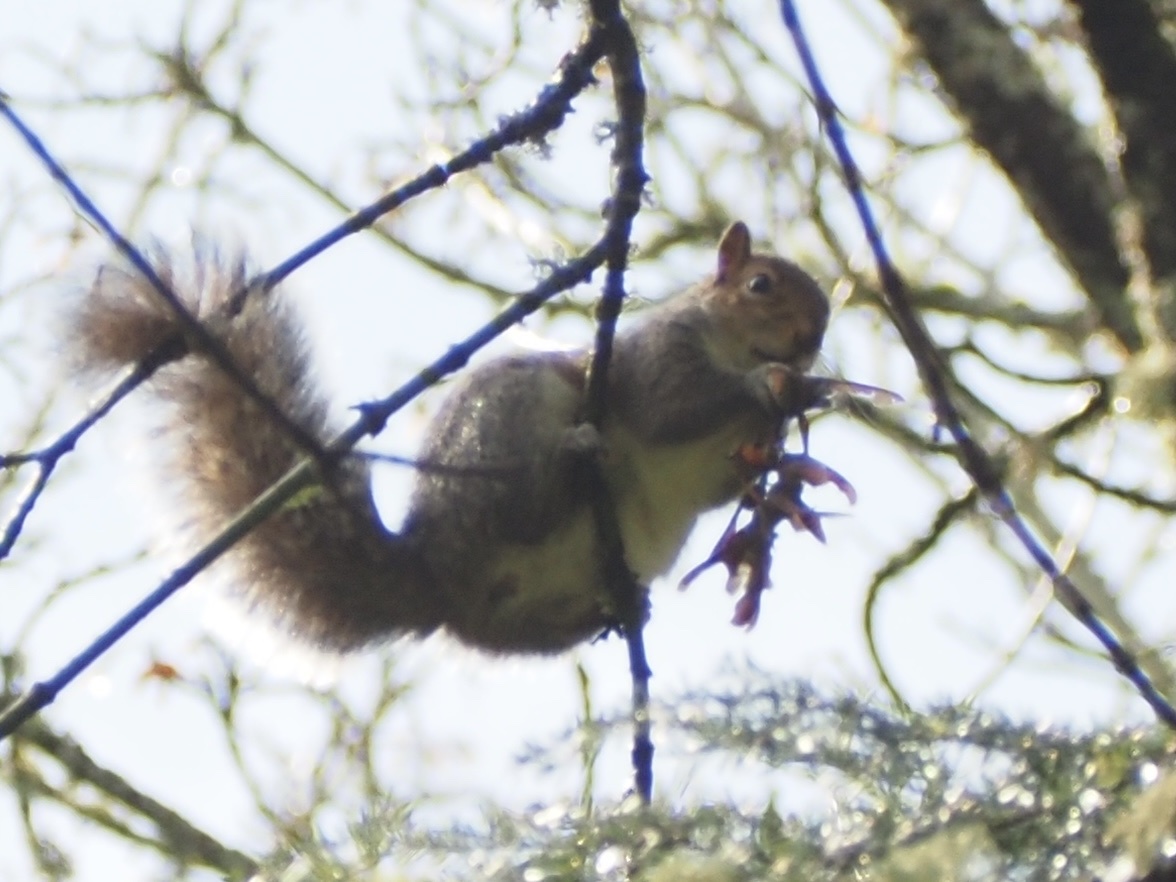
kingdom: Animalia
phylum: Chordata
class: Mammalia
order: Rodentia
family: Sciuridae
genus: Sciurus
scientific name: Sciurus carolinensis
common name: Eastern gray squirrel
